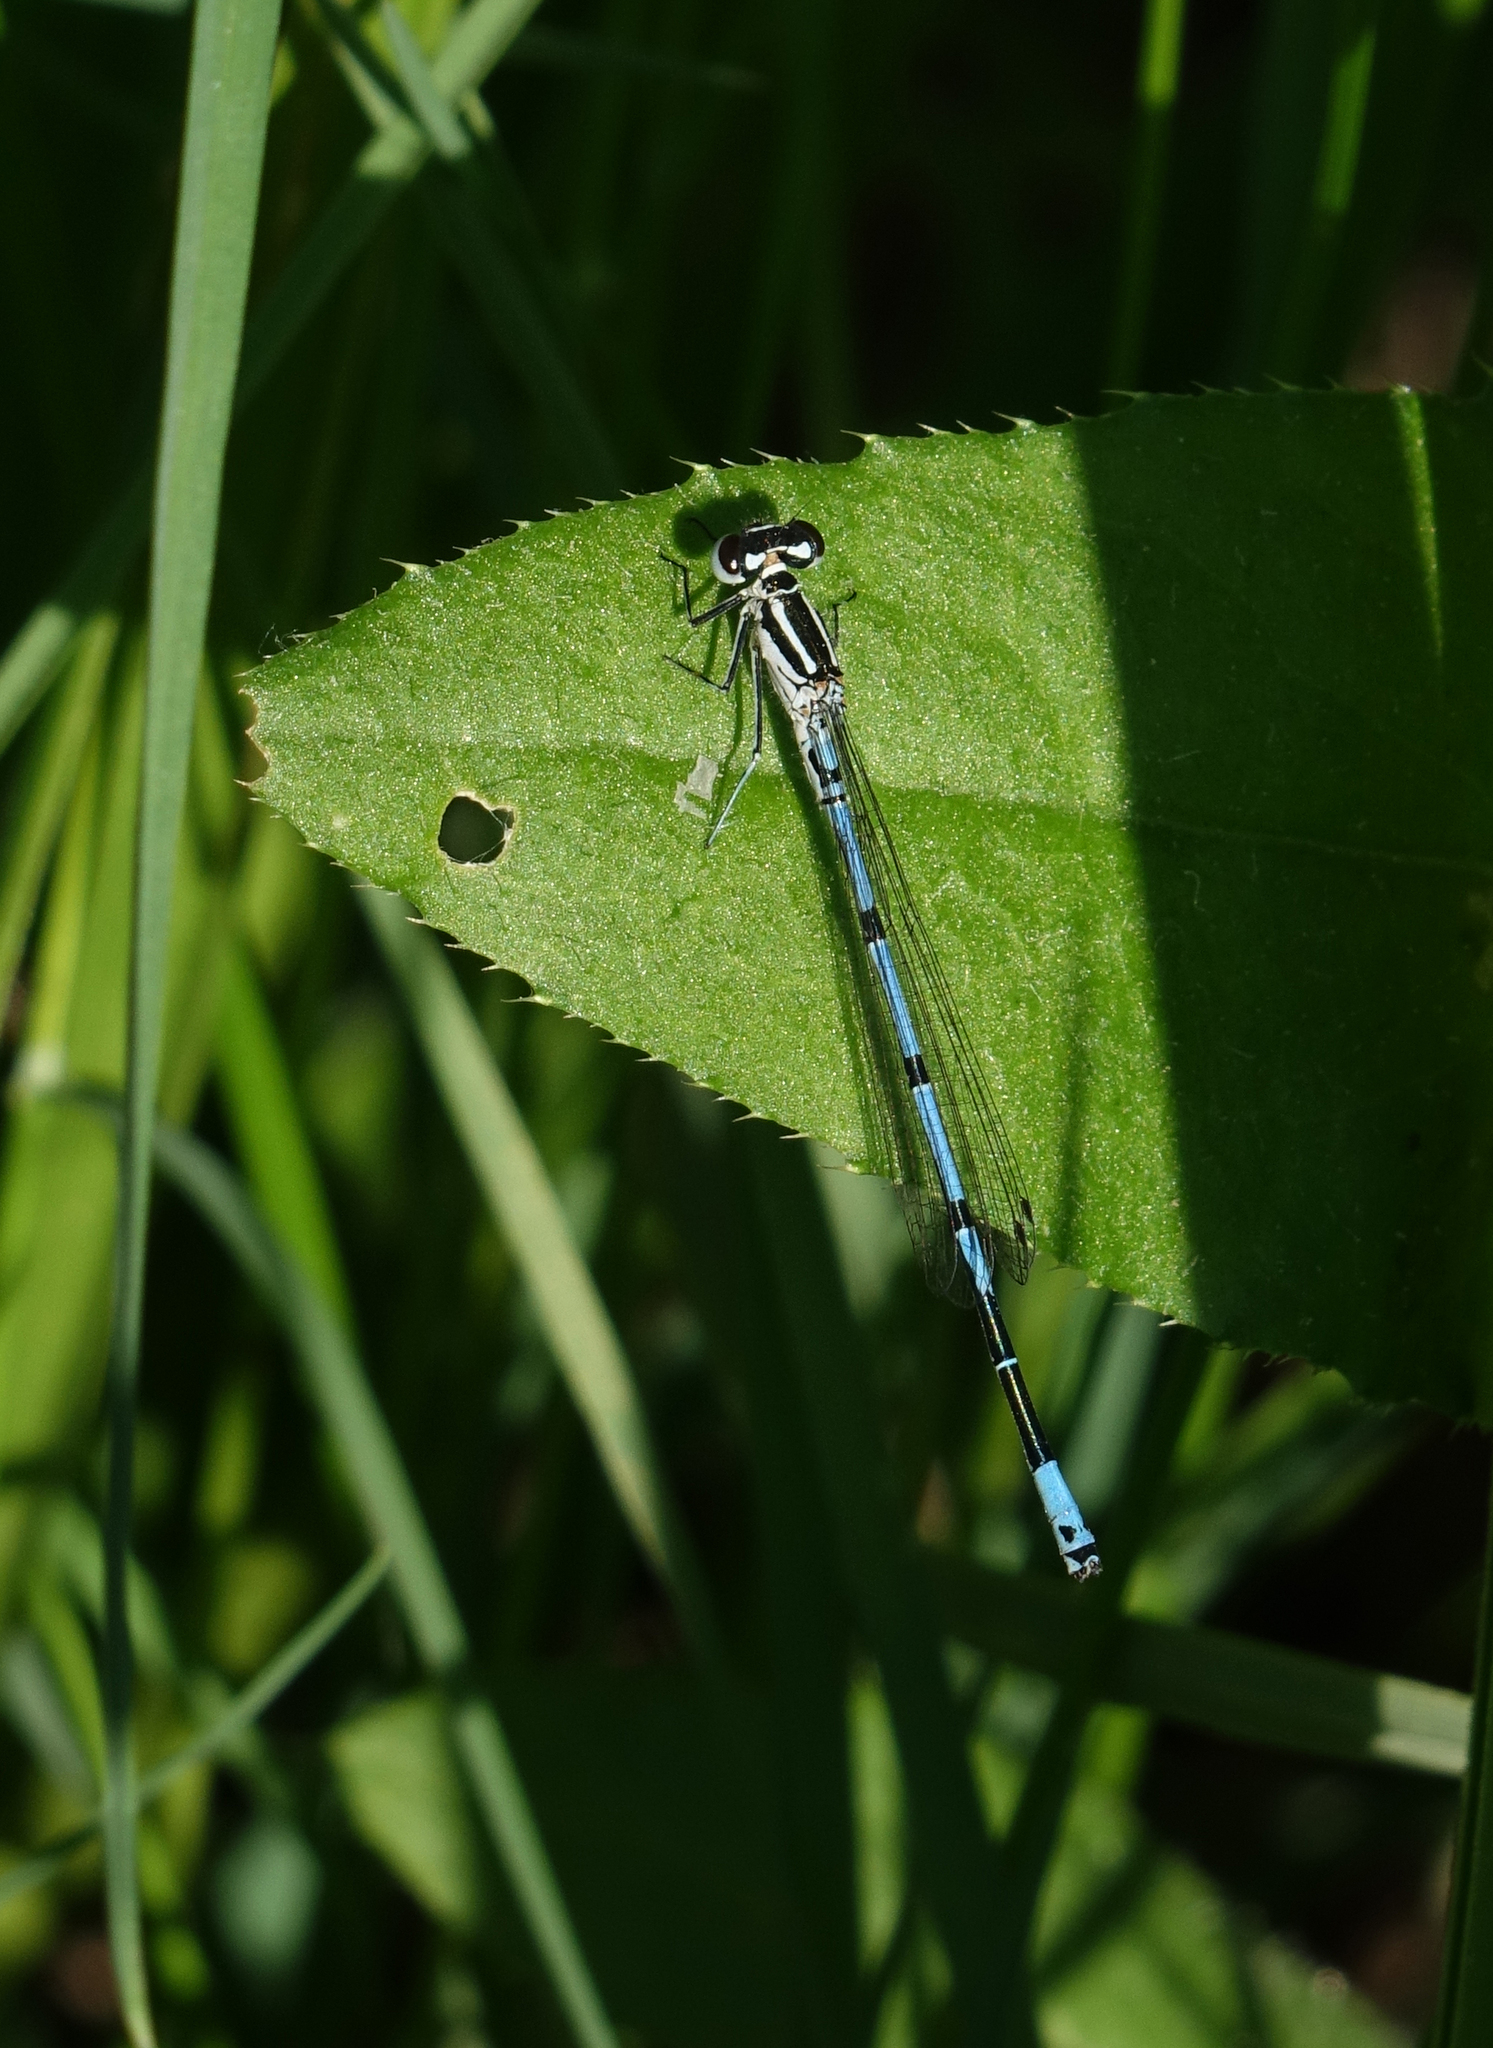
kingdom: Animalia
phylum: Arthropoda
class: Insecta
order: Odonata
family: Coenagrionidae
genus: Coenagrion
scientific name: Coenagrion puella
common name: Azure damselfly
